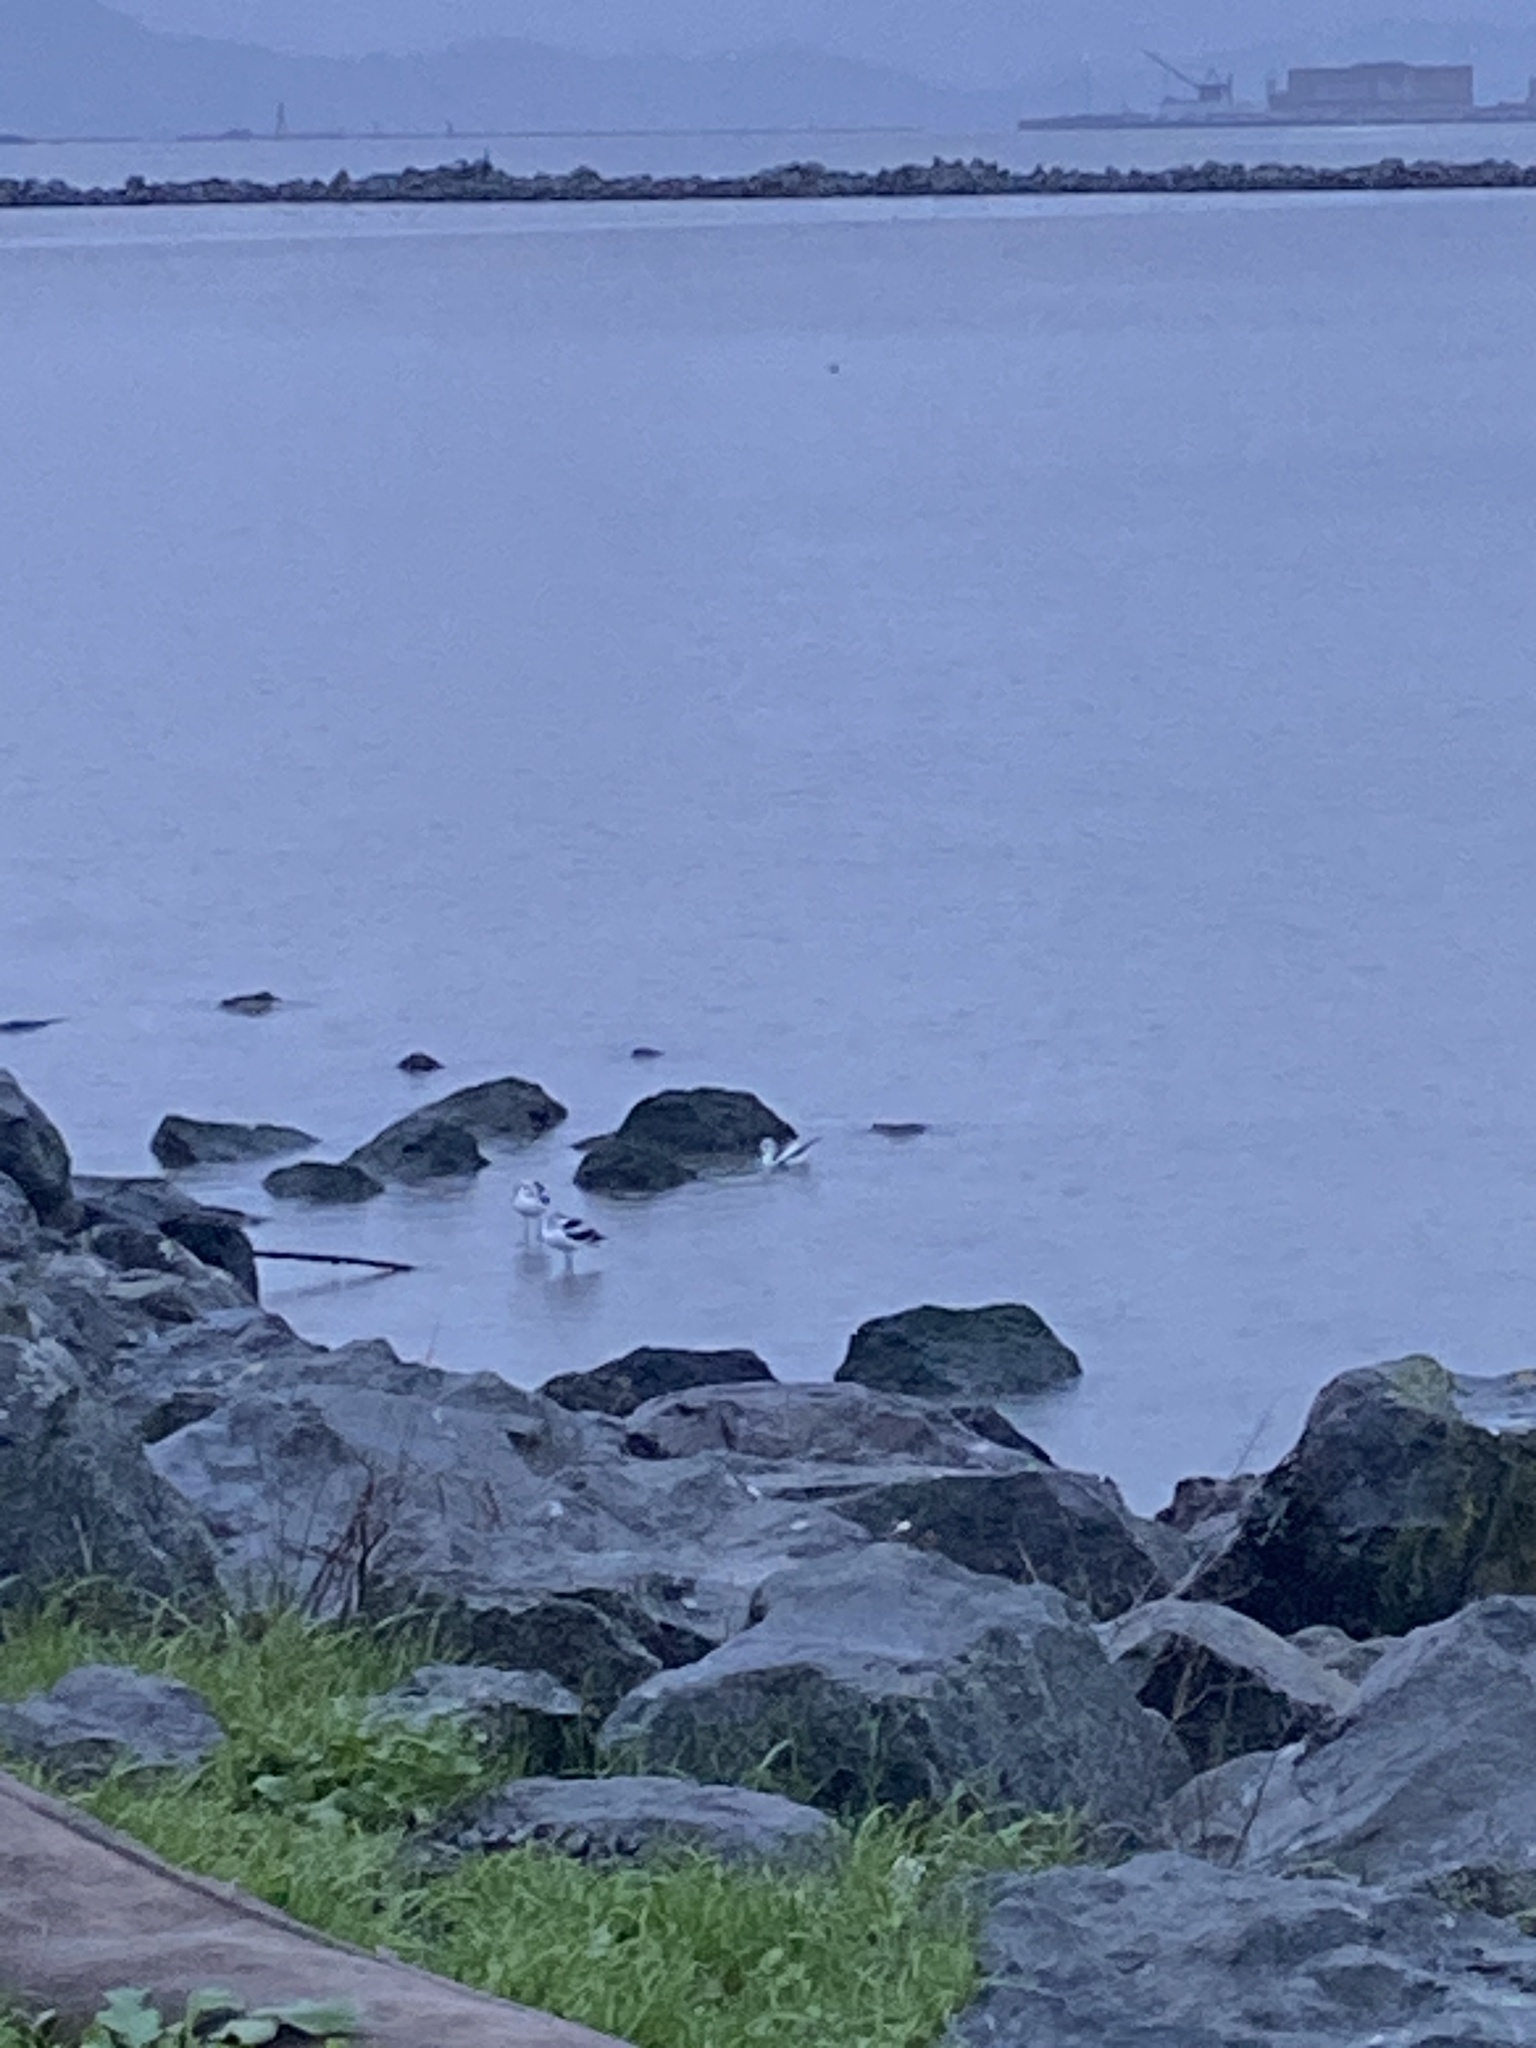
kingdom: Animalia
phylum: Chordata
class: Aves
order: Charadriiformes
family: Recurvirostridae
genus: Recurvirostra
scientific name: Recurvirostra americana
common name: American avocet
